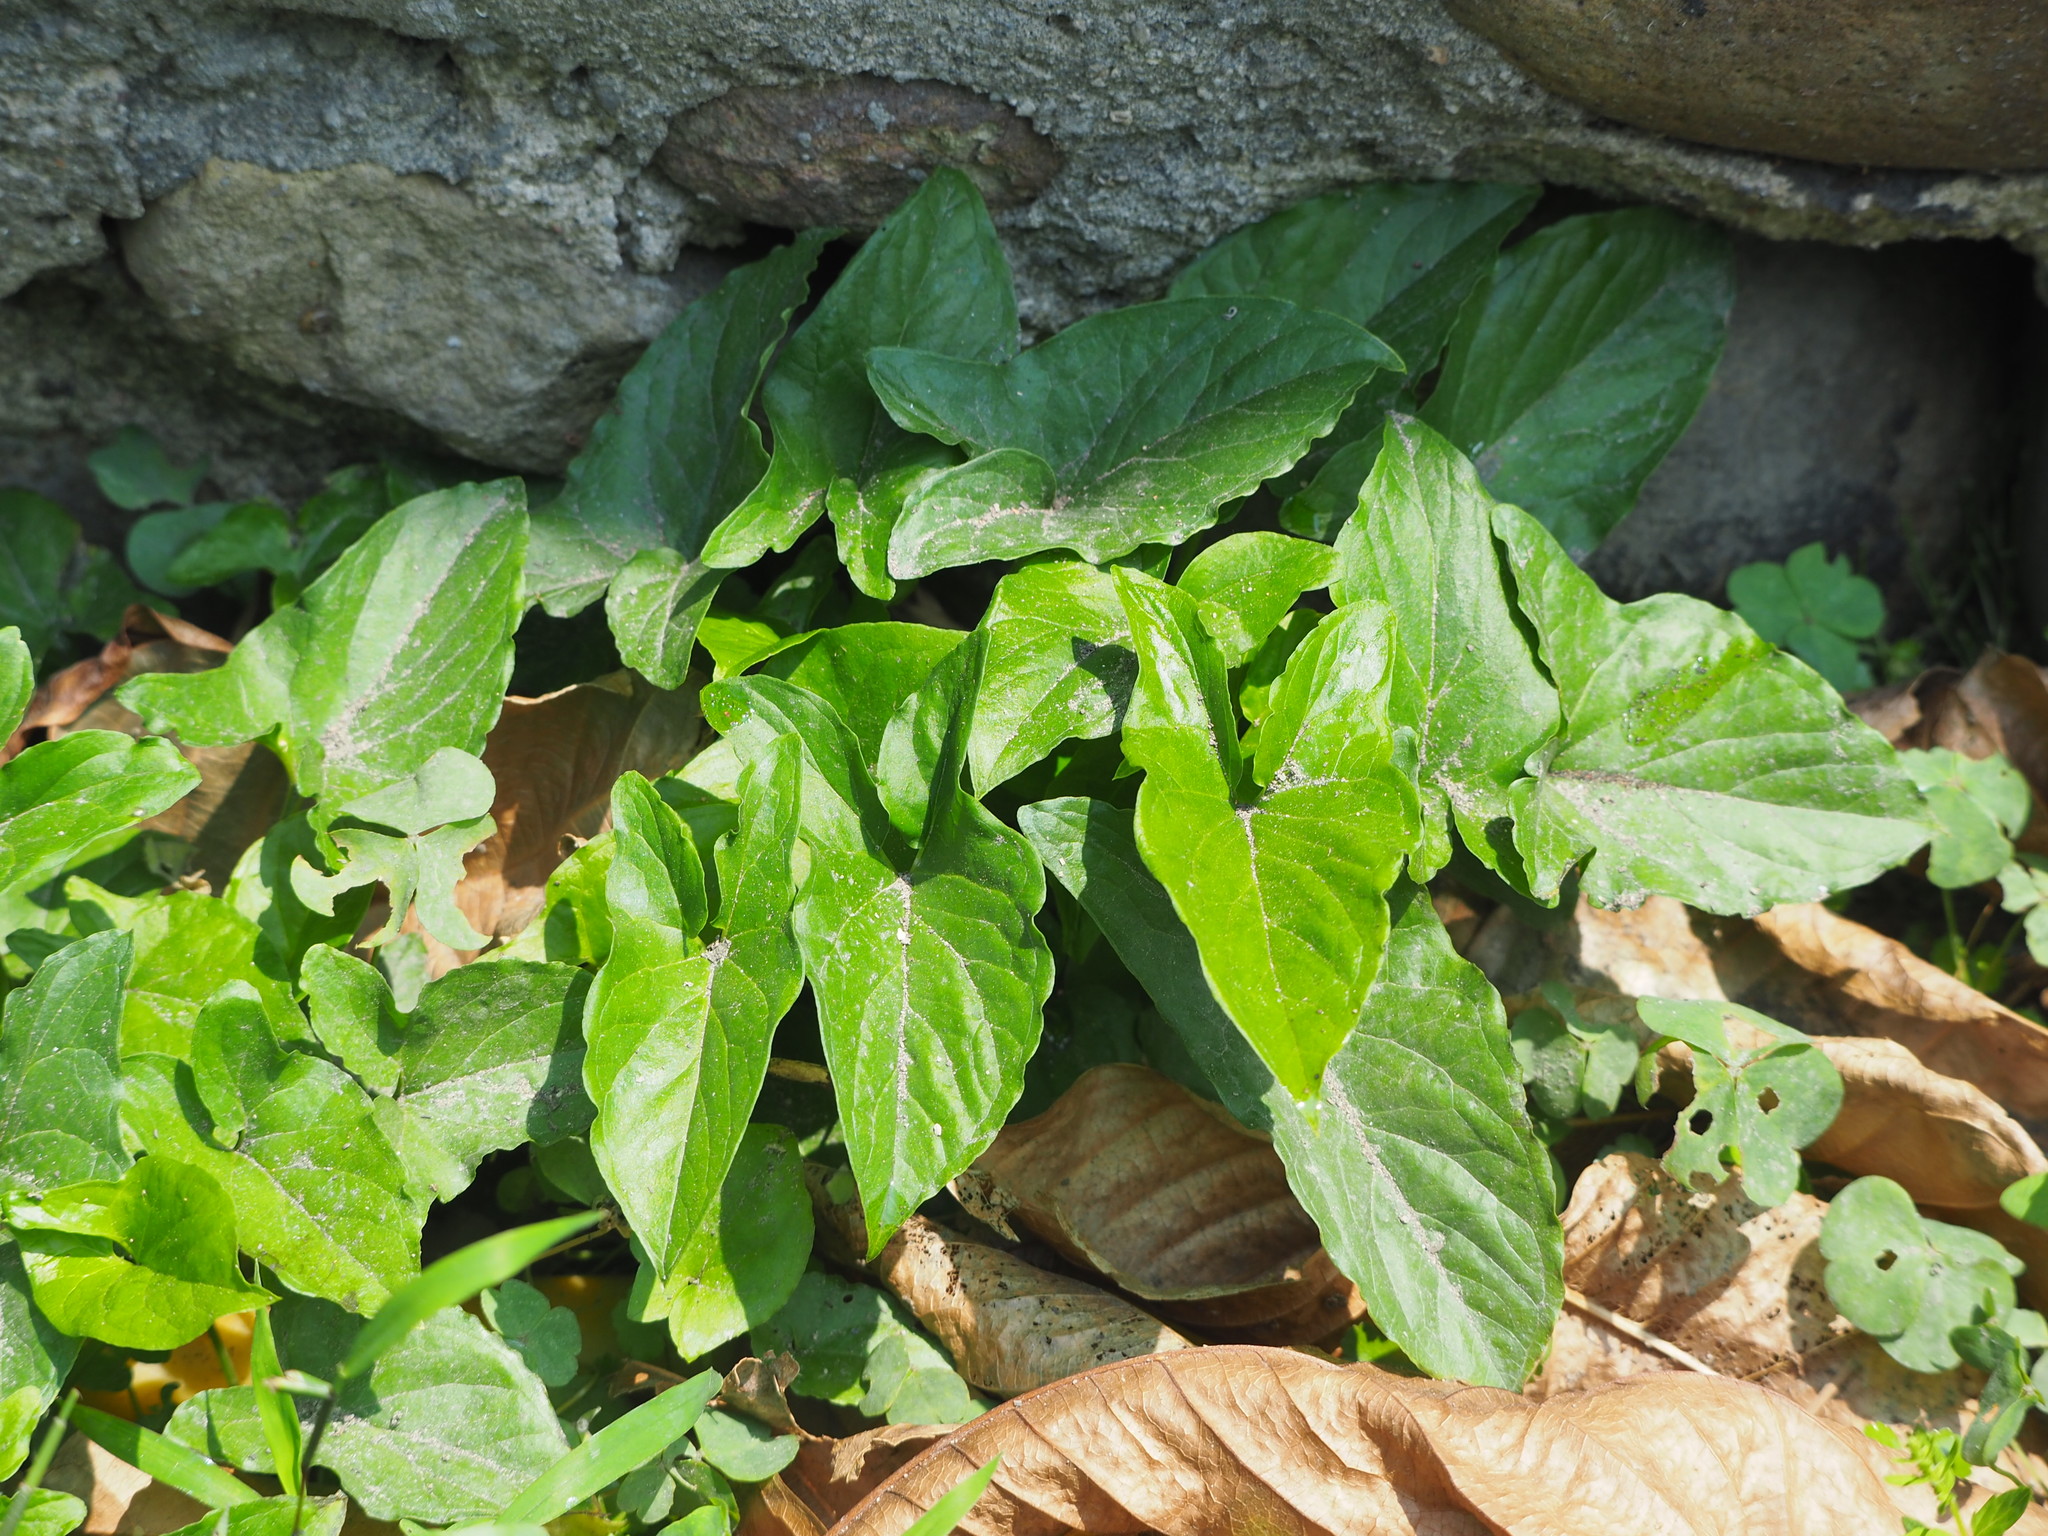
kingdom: Plantae
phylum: Tracheophyta
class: Liliopsida
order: Alismatales
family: Araceae
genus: Typhonium
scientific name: Typhonium blumei
